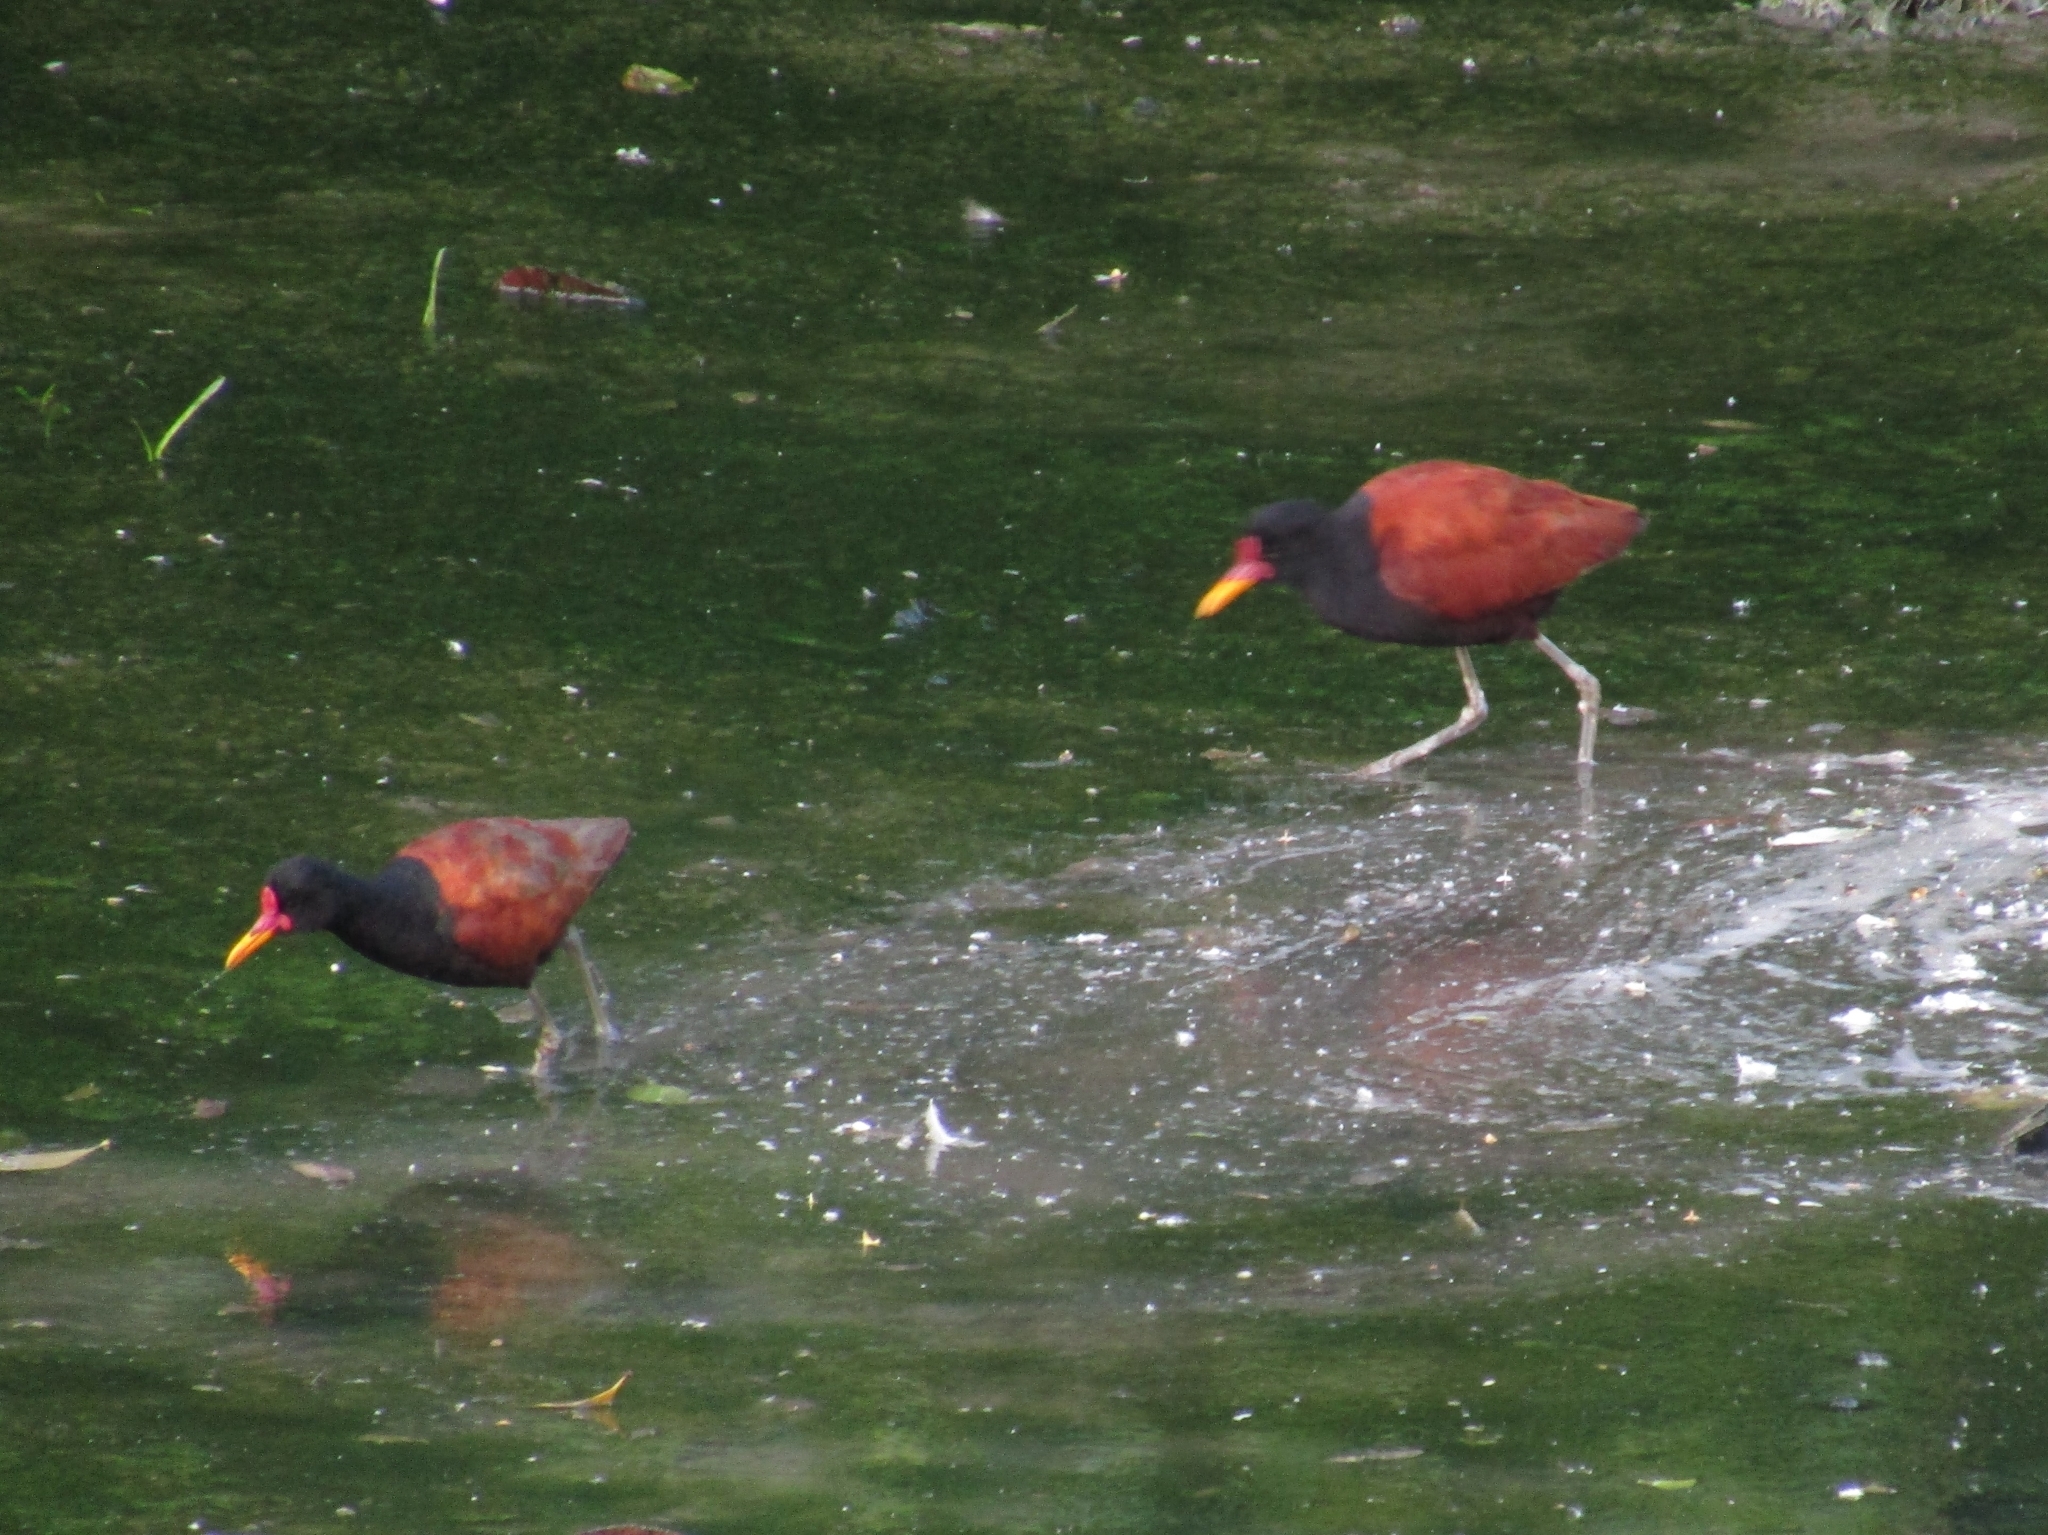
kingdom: Animalia
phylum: Chordata
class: Aves
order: Charadriiformes
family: Jacanidae
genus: Jacana
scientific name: Jacana jacana
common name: Wattled jacana
